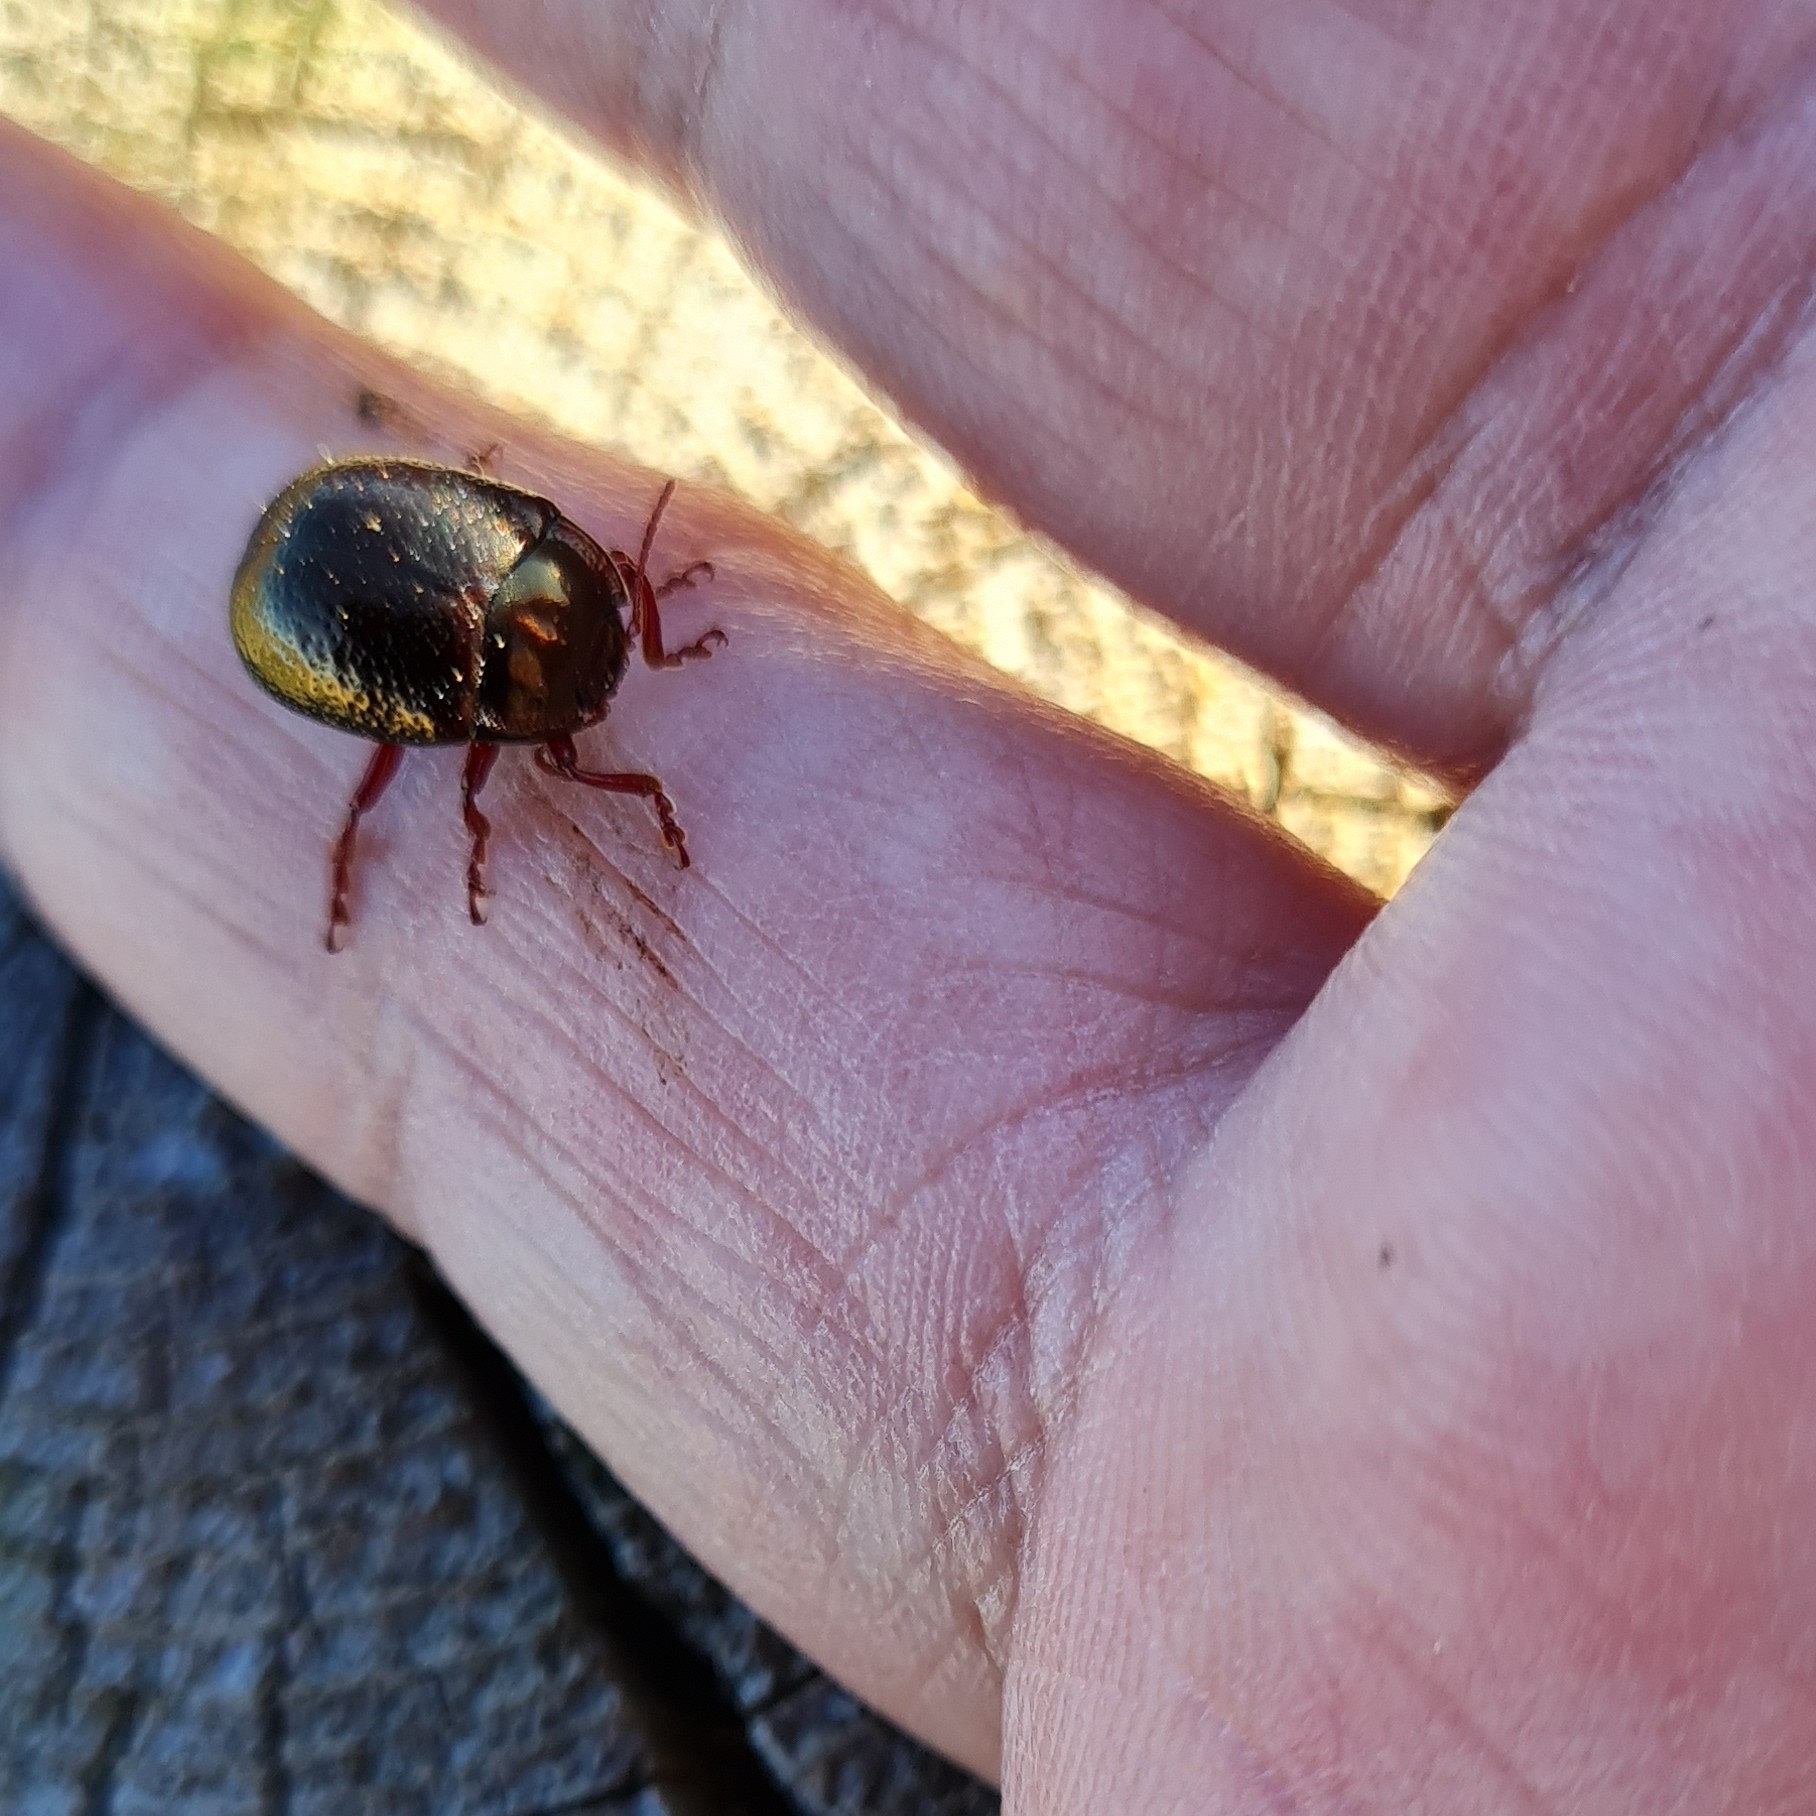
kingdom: Animalia
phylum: Arthropoda
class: Insecta
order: Coleoptera
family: Chrysomelidae
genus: Chrysolina
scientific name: Chrysolina bankii
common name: Leaf beetle
